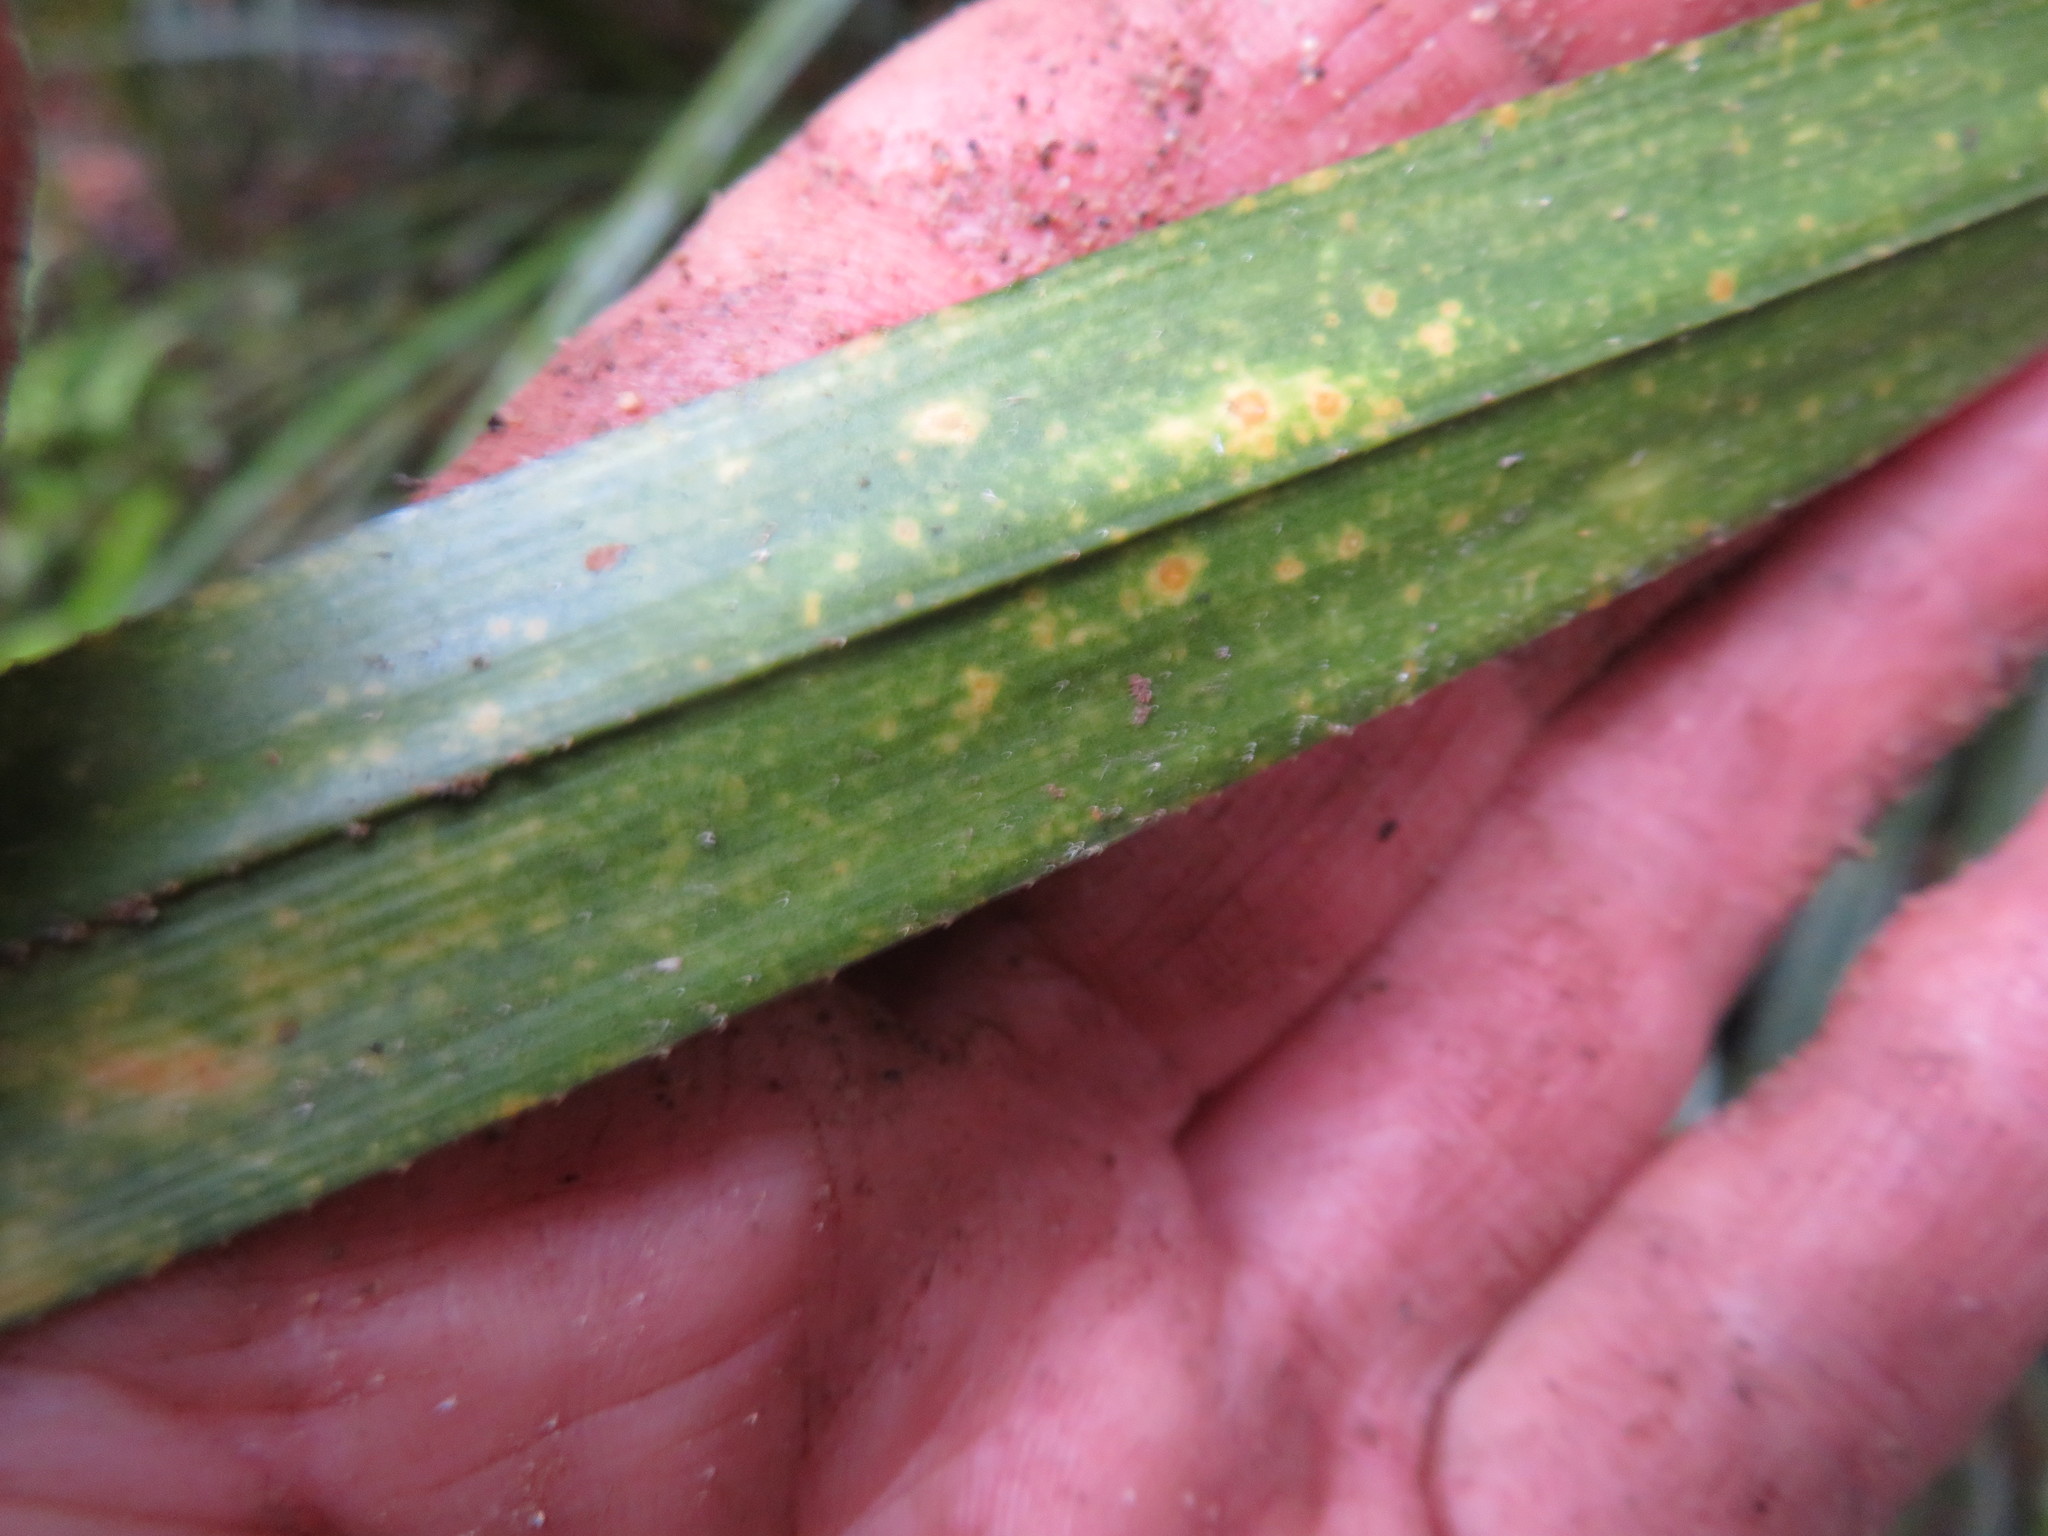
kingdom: Plantae
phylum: Tracheophyta
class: Liliopsida
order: Pandanales
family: Pandanaceae
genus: Freycinetia
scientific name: Freycinetia banksii
